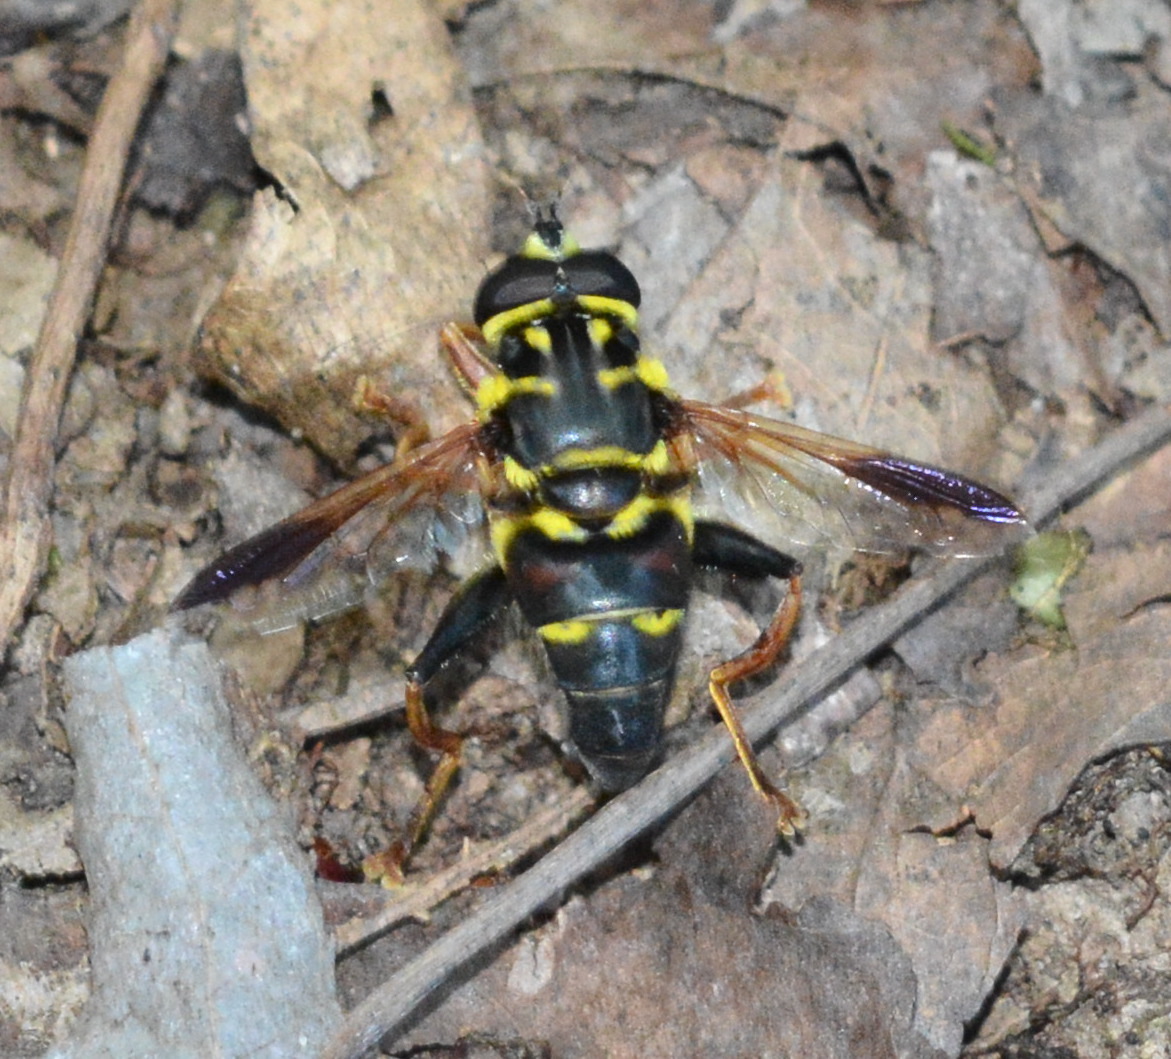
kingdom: Animalia
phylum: Arthropoda
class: Insecta
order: Diptera
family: Syrphidae
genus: Meromacrus
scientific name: Meromacrus acutus
